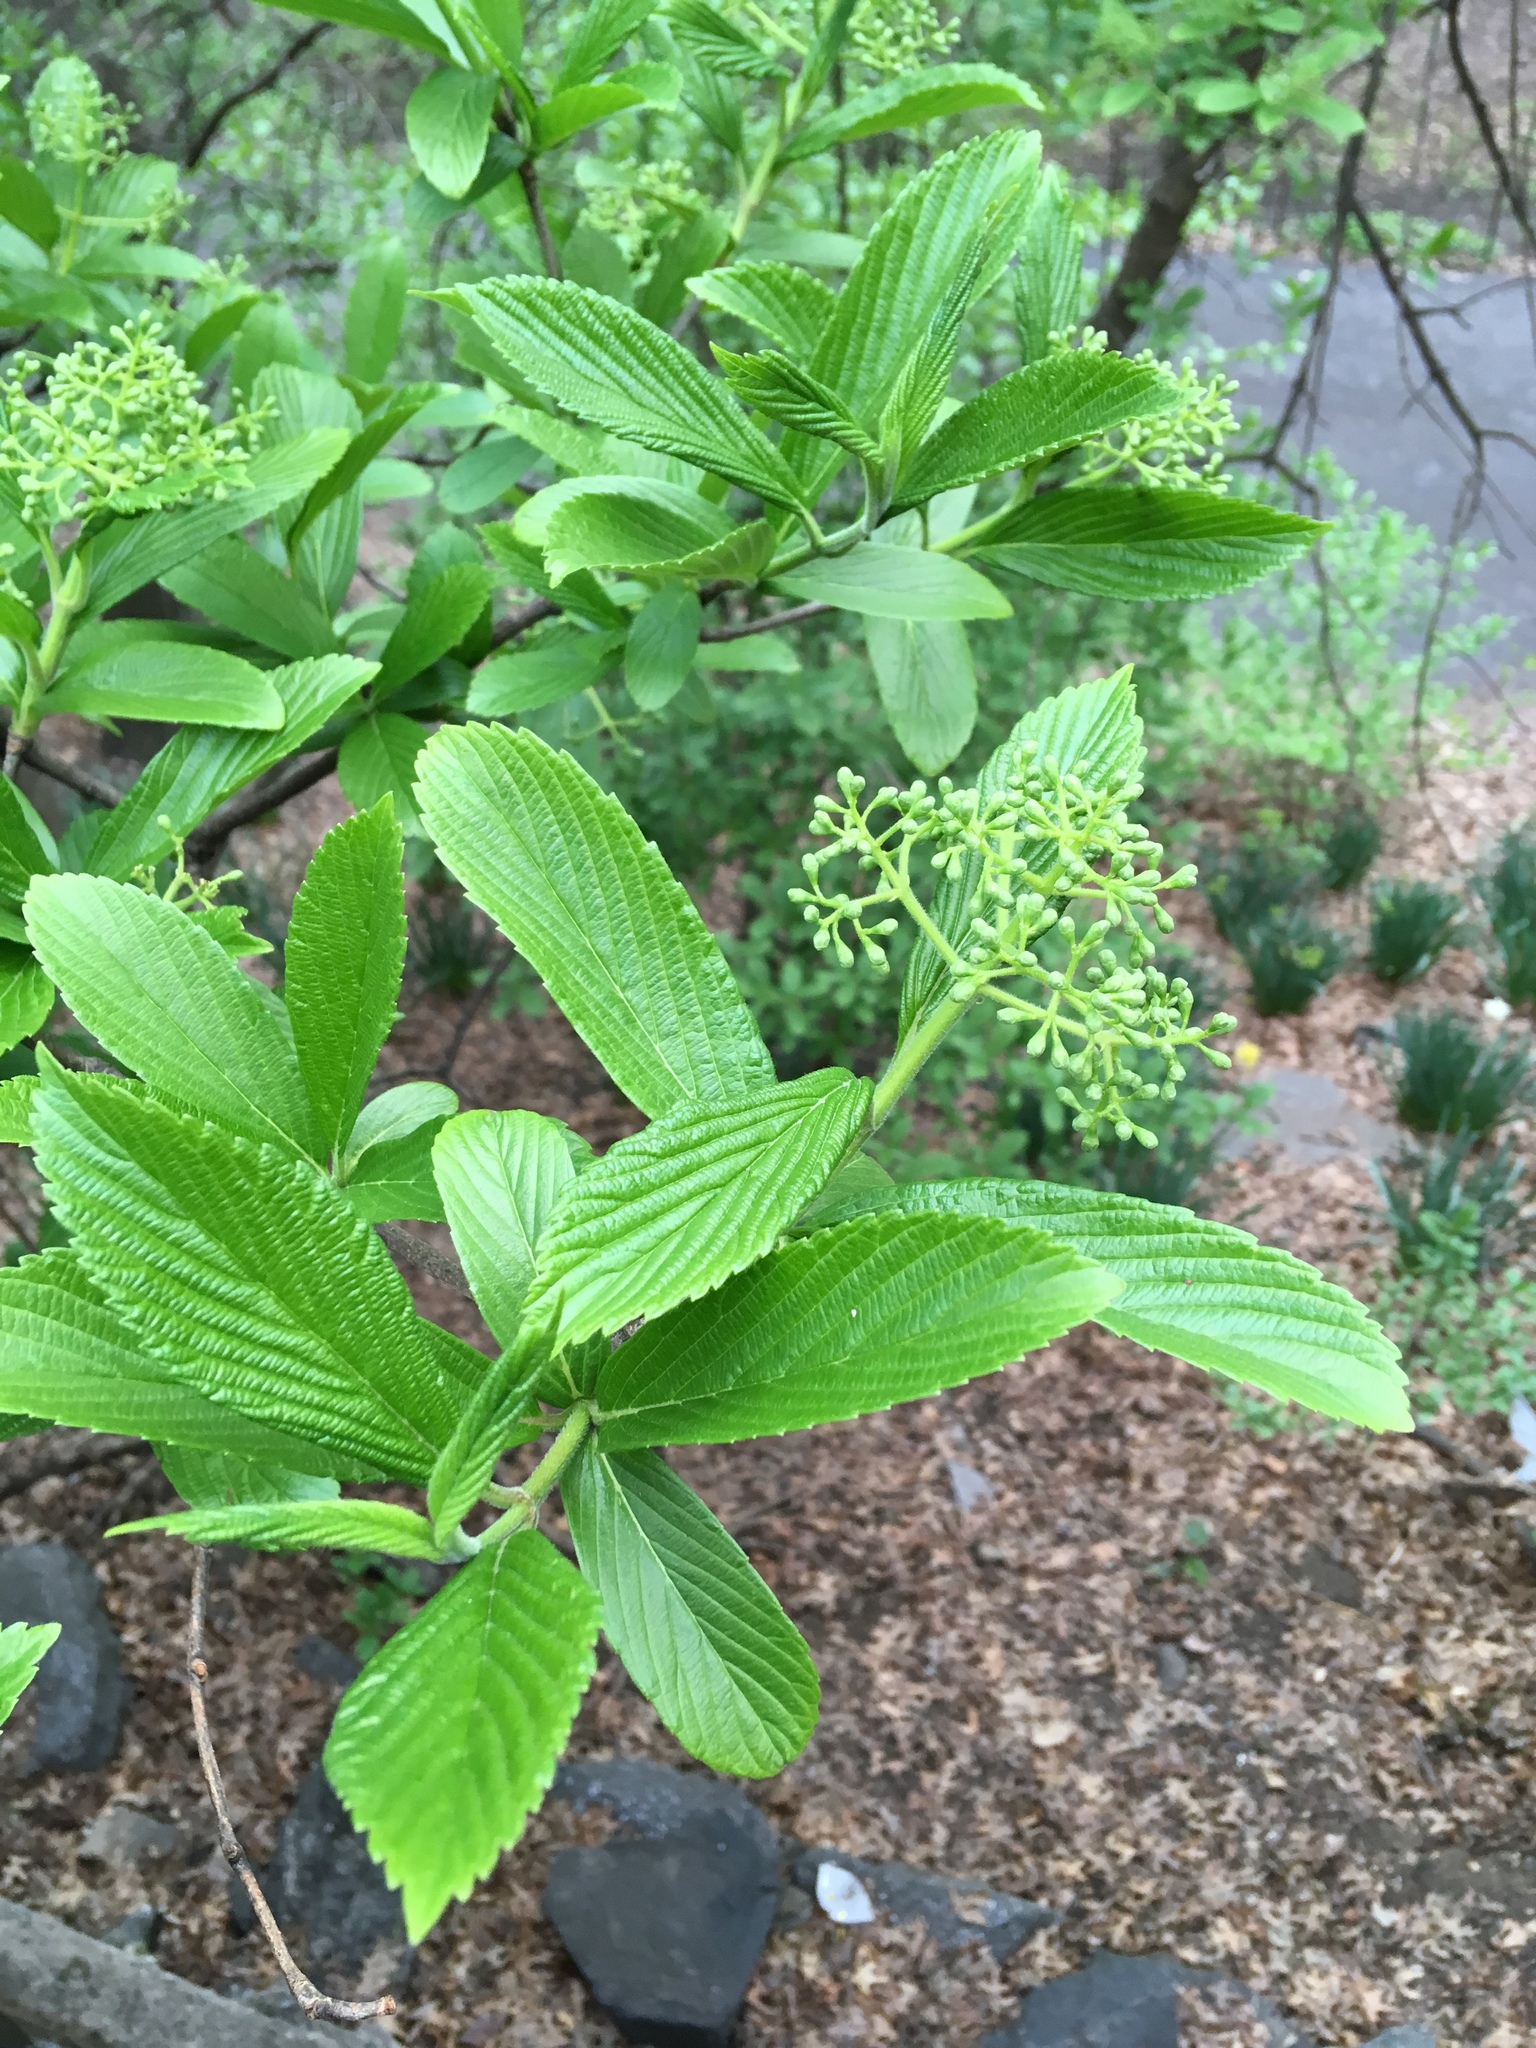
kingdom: Plantae
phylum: Tracheophyta
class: Magnoliopsida
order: Dipsacales
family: Viburnaceae
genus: Viburnum
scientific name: Viburnum sieboldii
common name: Siebold's arrowwood
